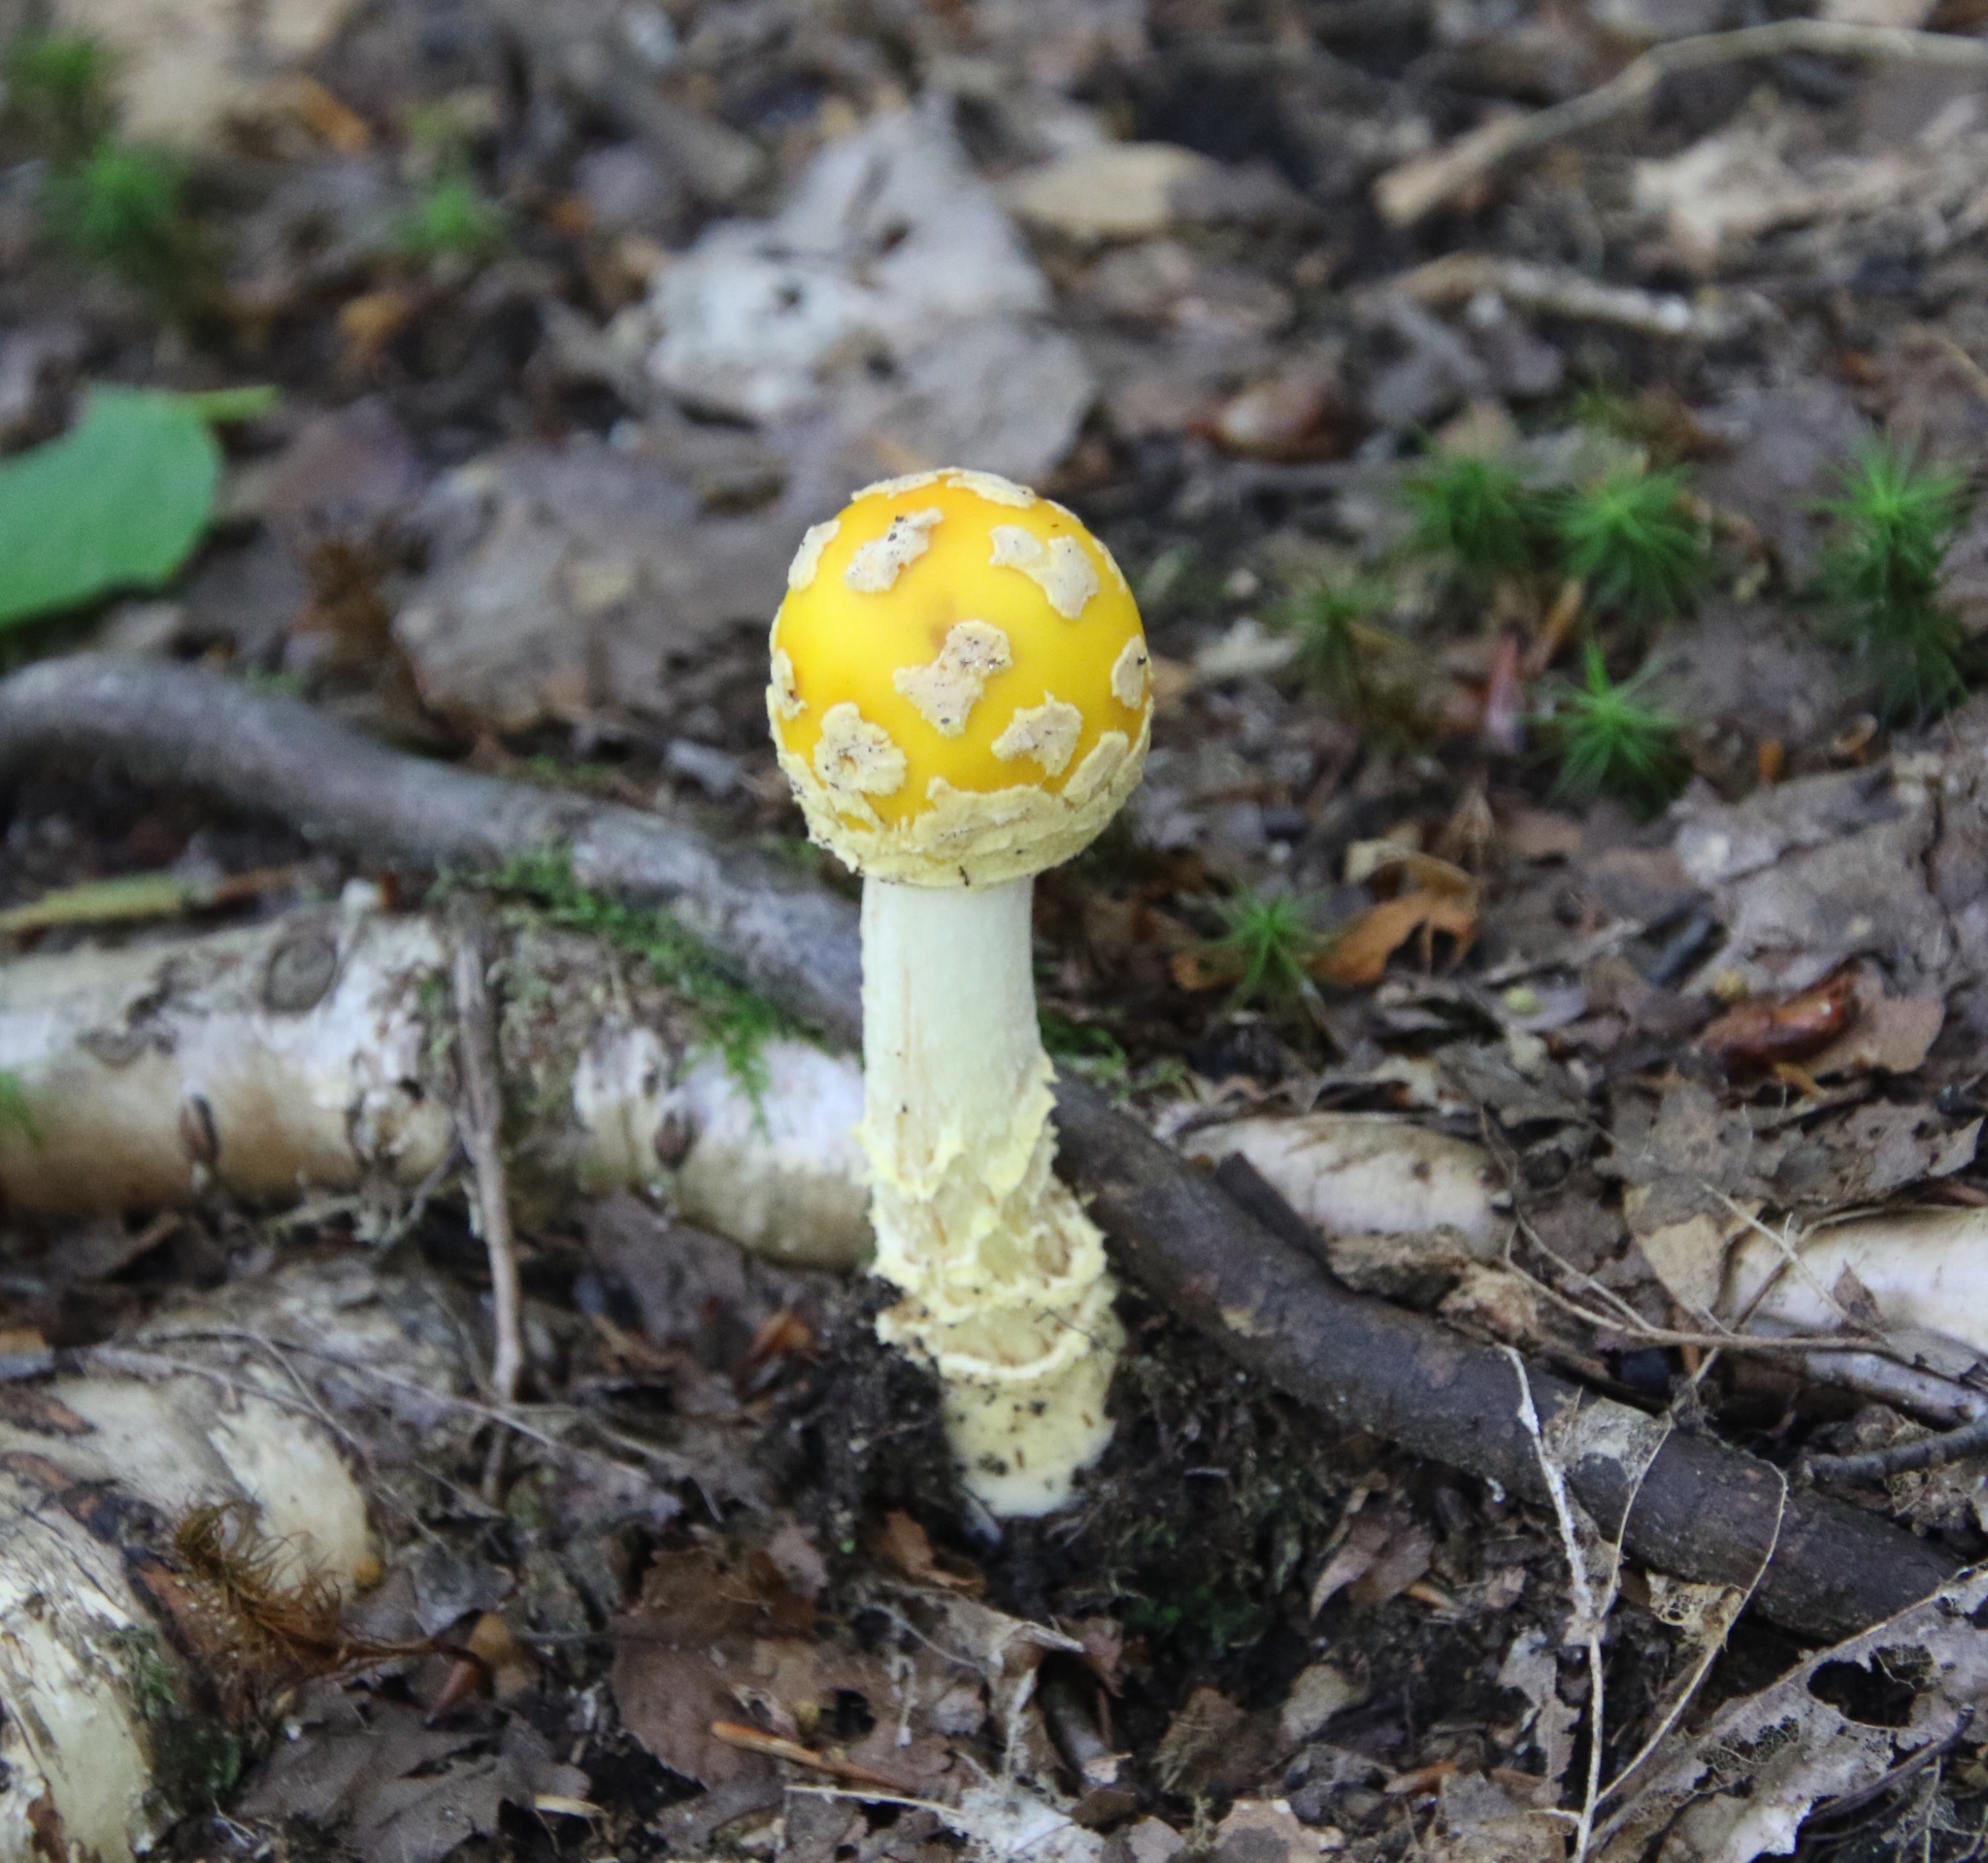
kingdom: Fungi
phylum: Basidiomycota
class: Agaricomycetes
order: Agaricales
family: Amanitaceae
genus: Amanita
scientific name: Amanita muscaria
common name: Fly agaric
